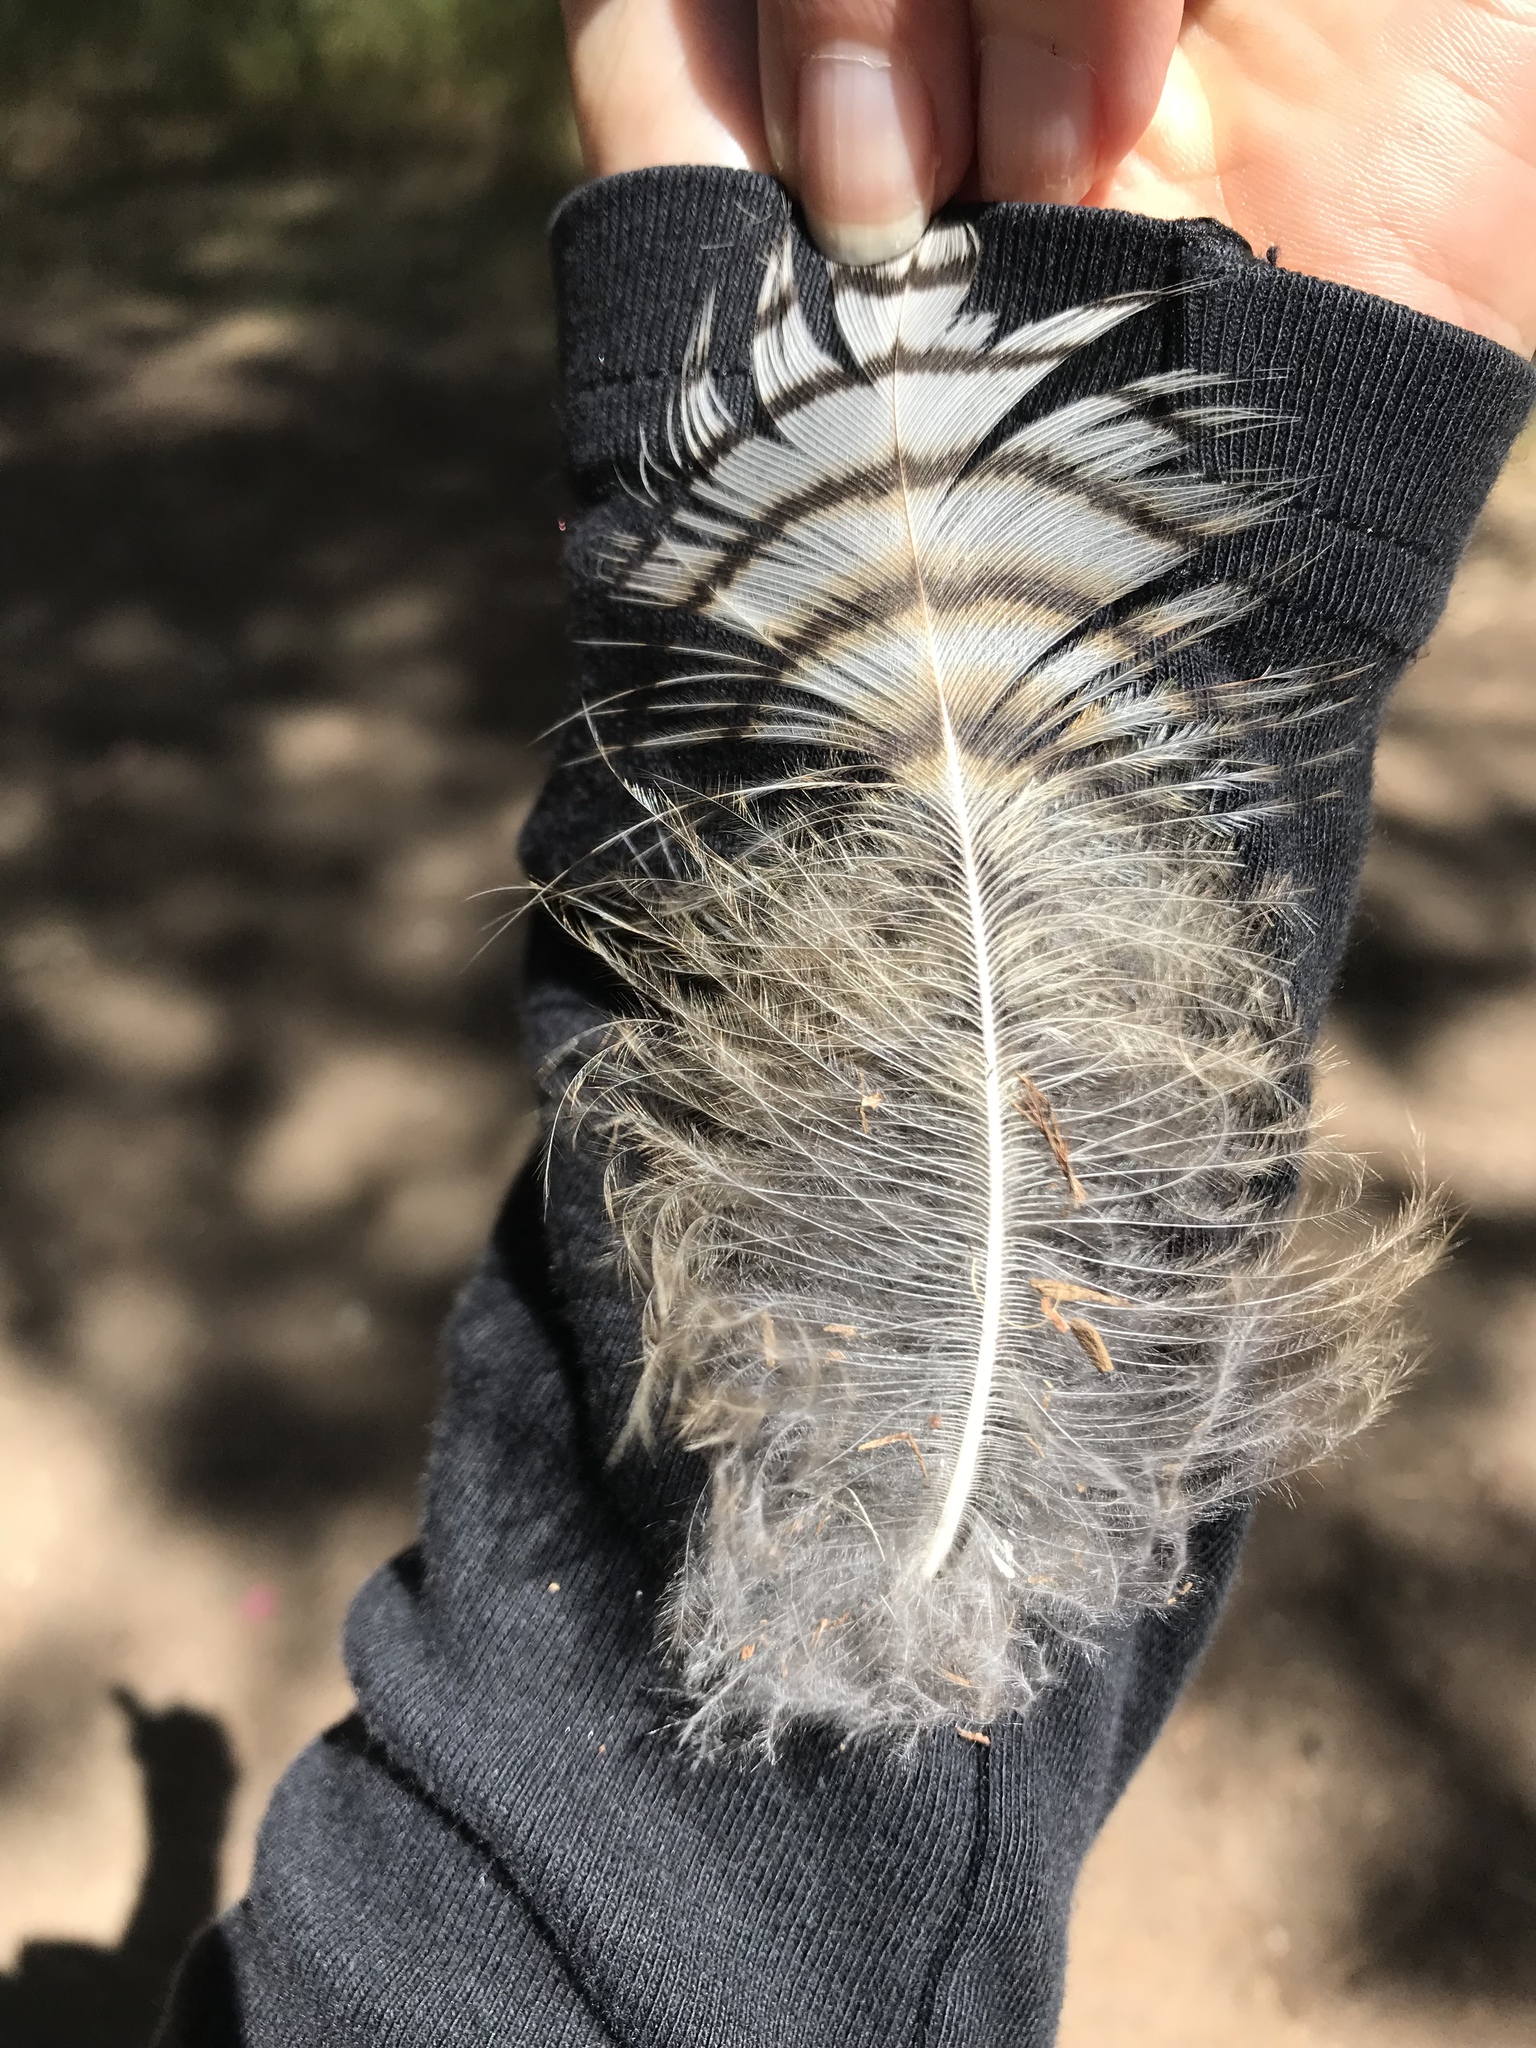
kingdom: Animalia
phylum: Chordata
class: Aves
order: Strigiformes
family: Strigidae
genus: Bubo
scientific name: Bubo virginianus
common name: Great horned owl
